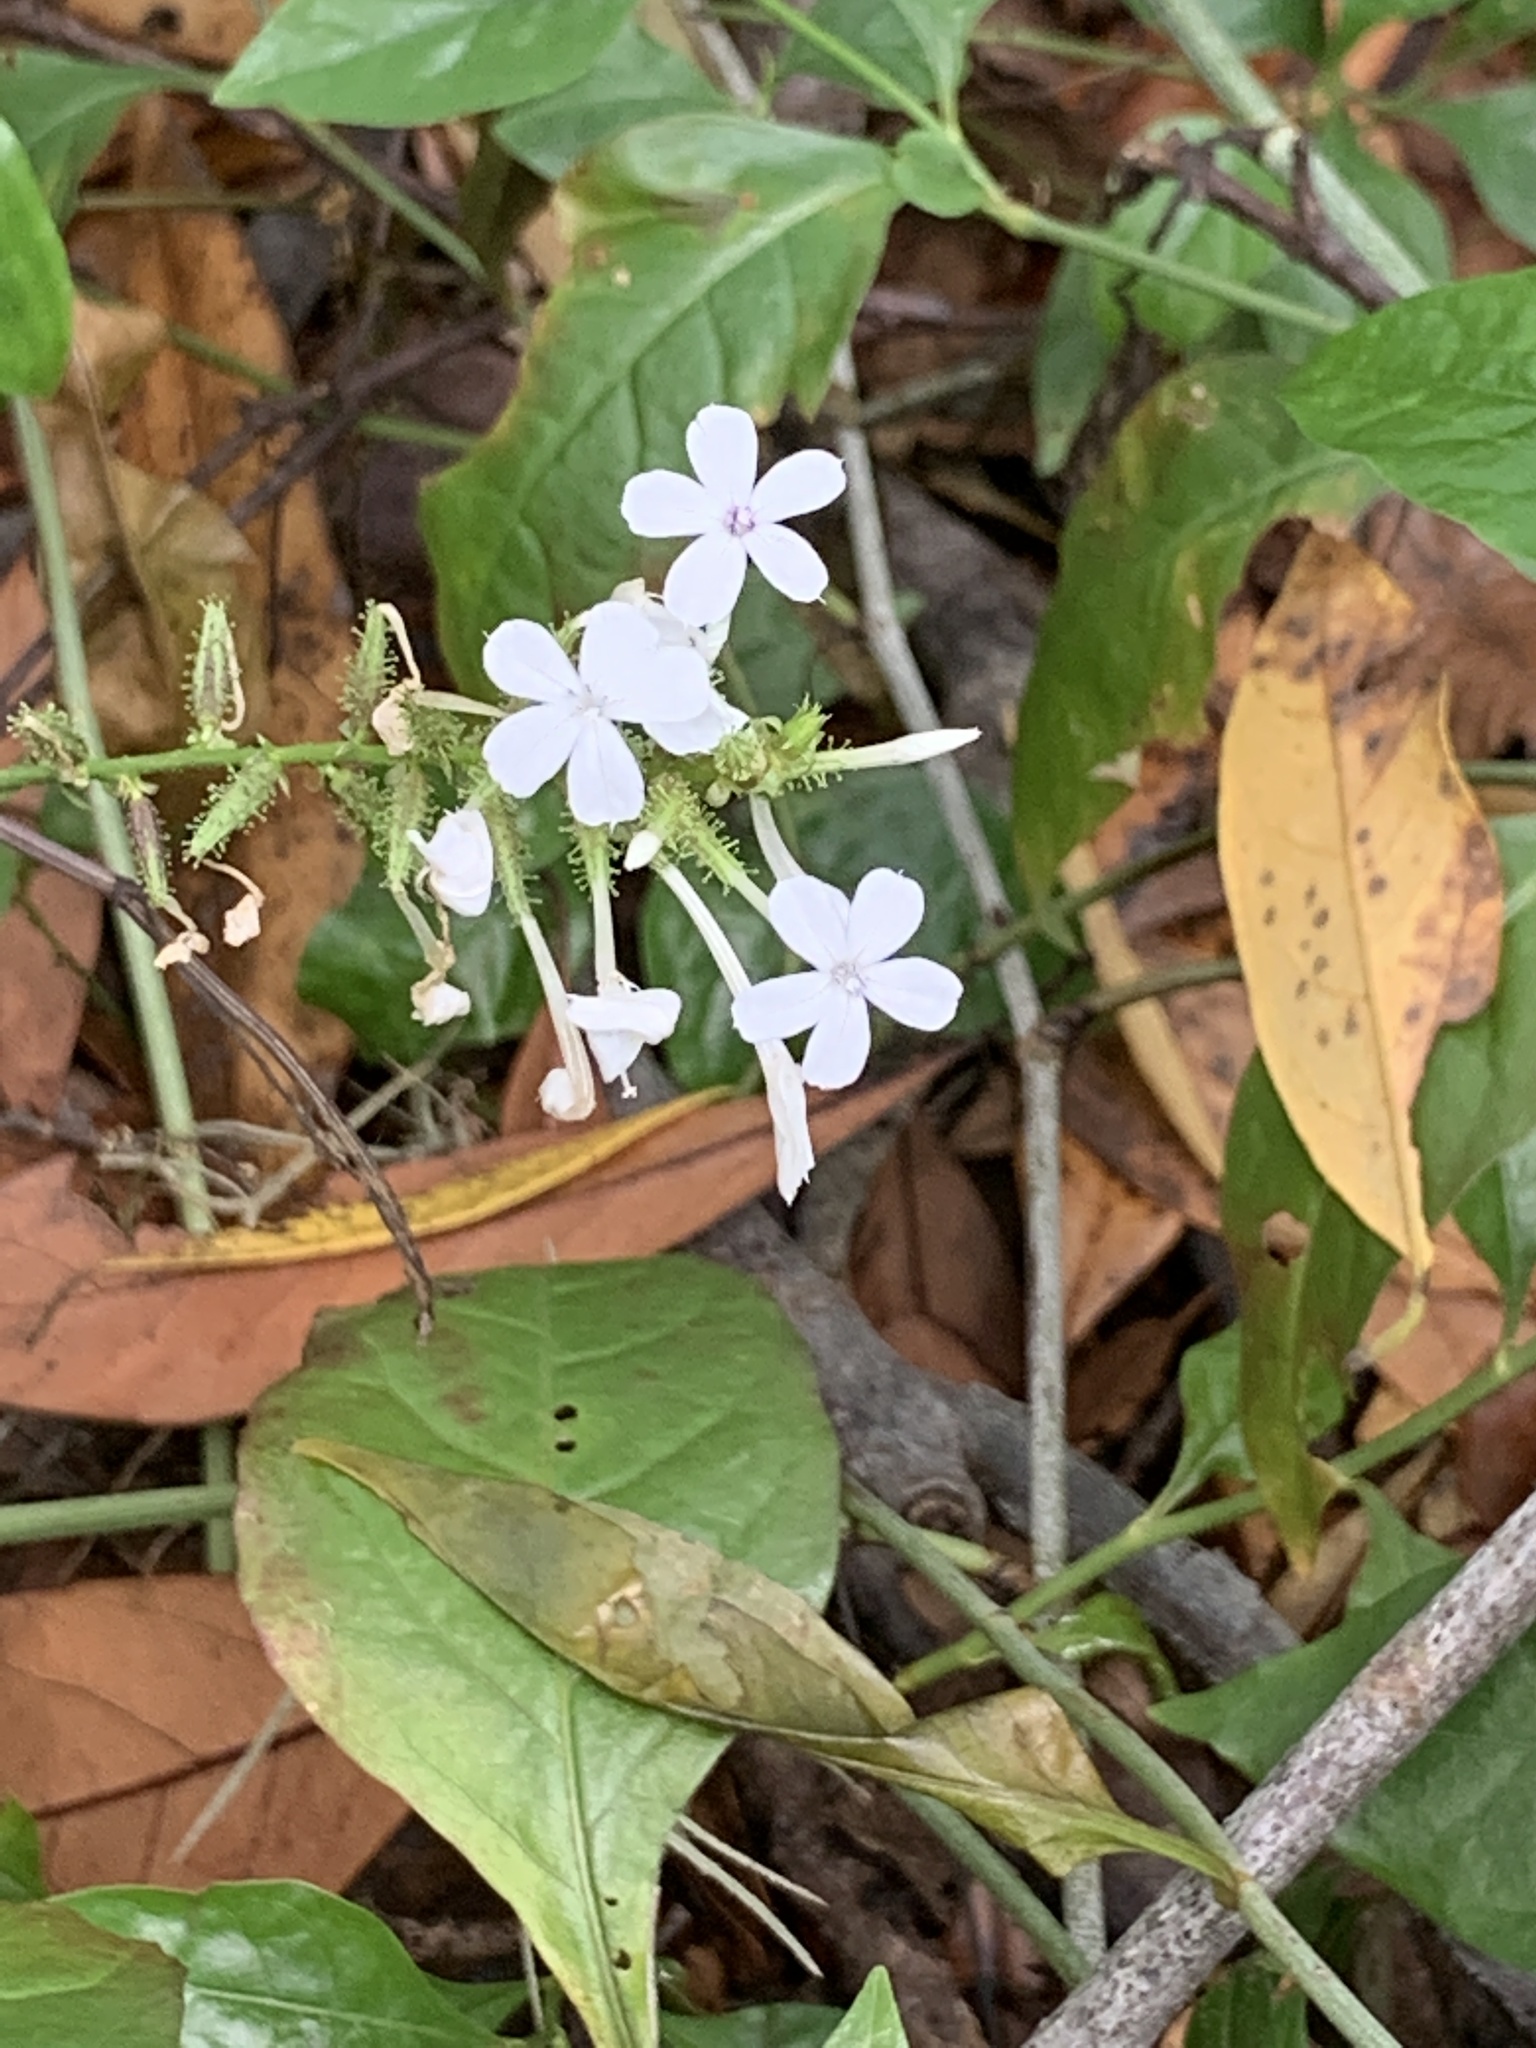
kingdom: Plantae
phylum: Tracheophyta
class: Magnoliopsida
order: Caryophyllales
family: Plumbaginaceae
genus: Plumbago
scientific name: Plumbago zeylanica
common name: Doctorbush
